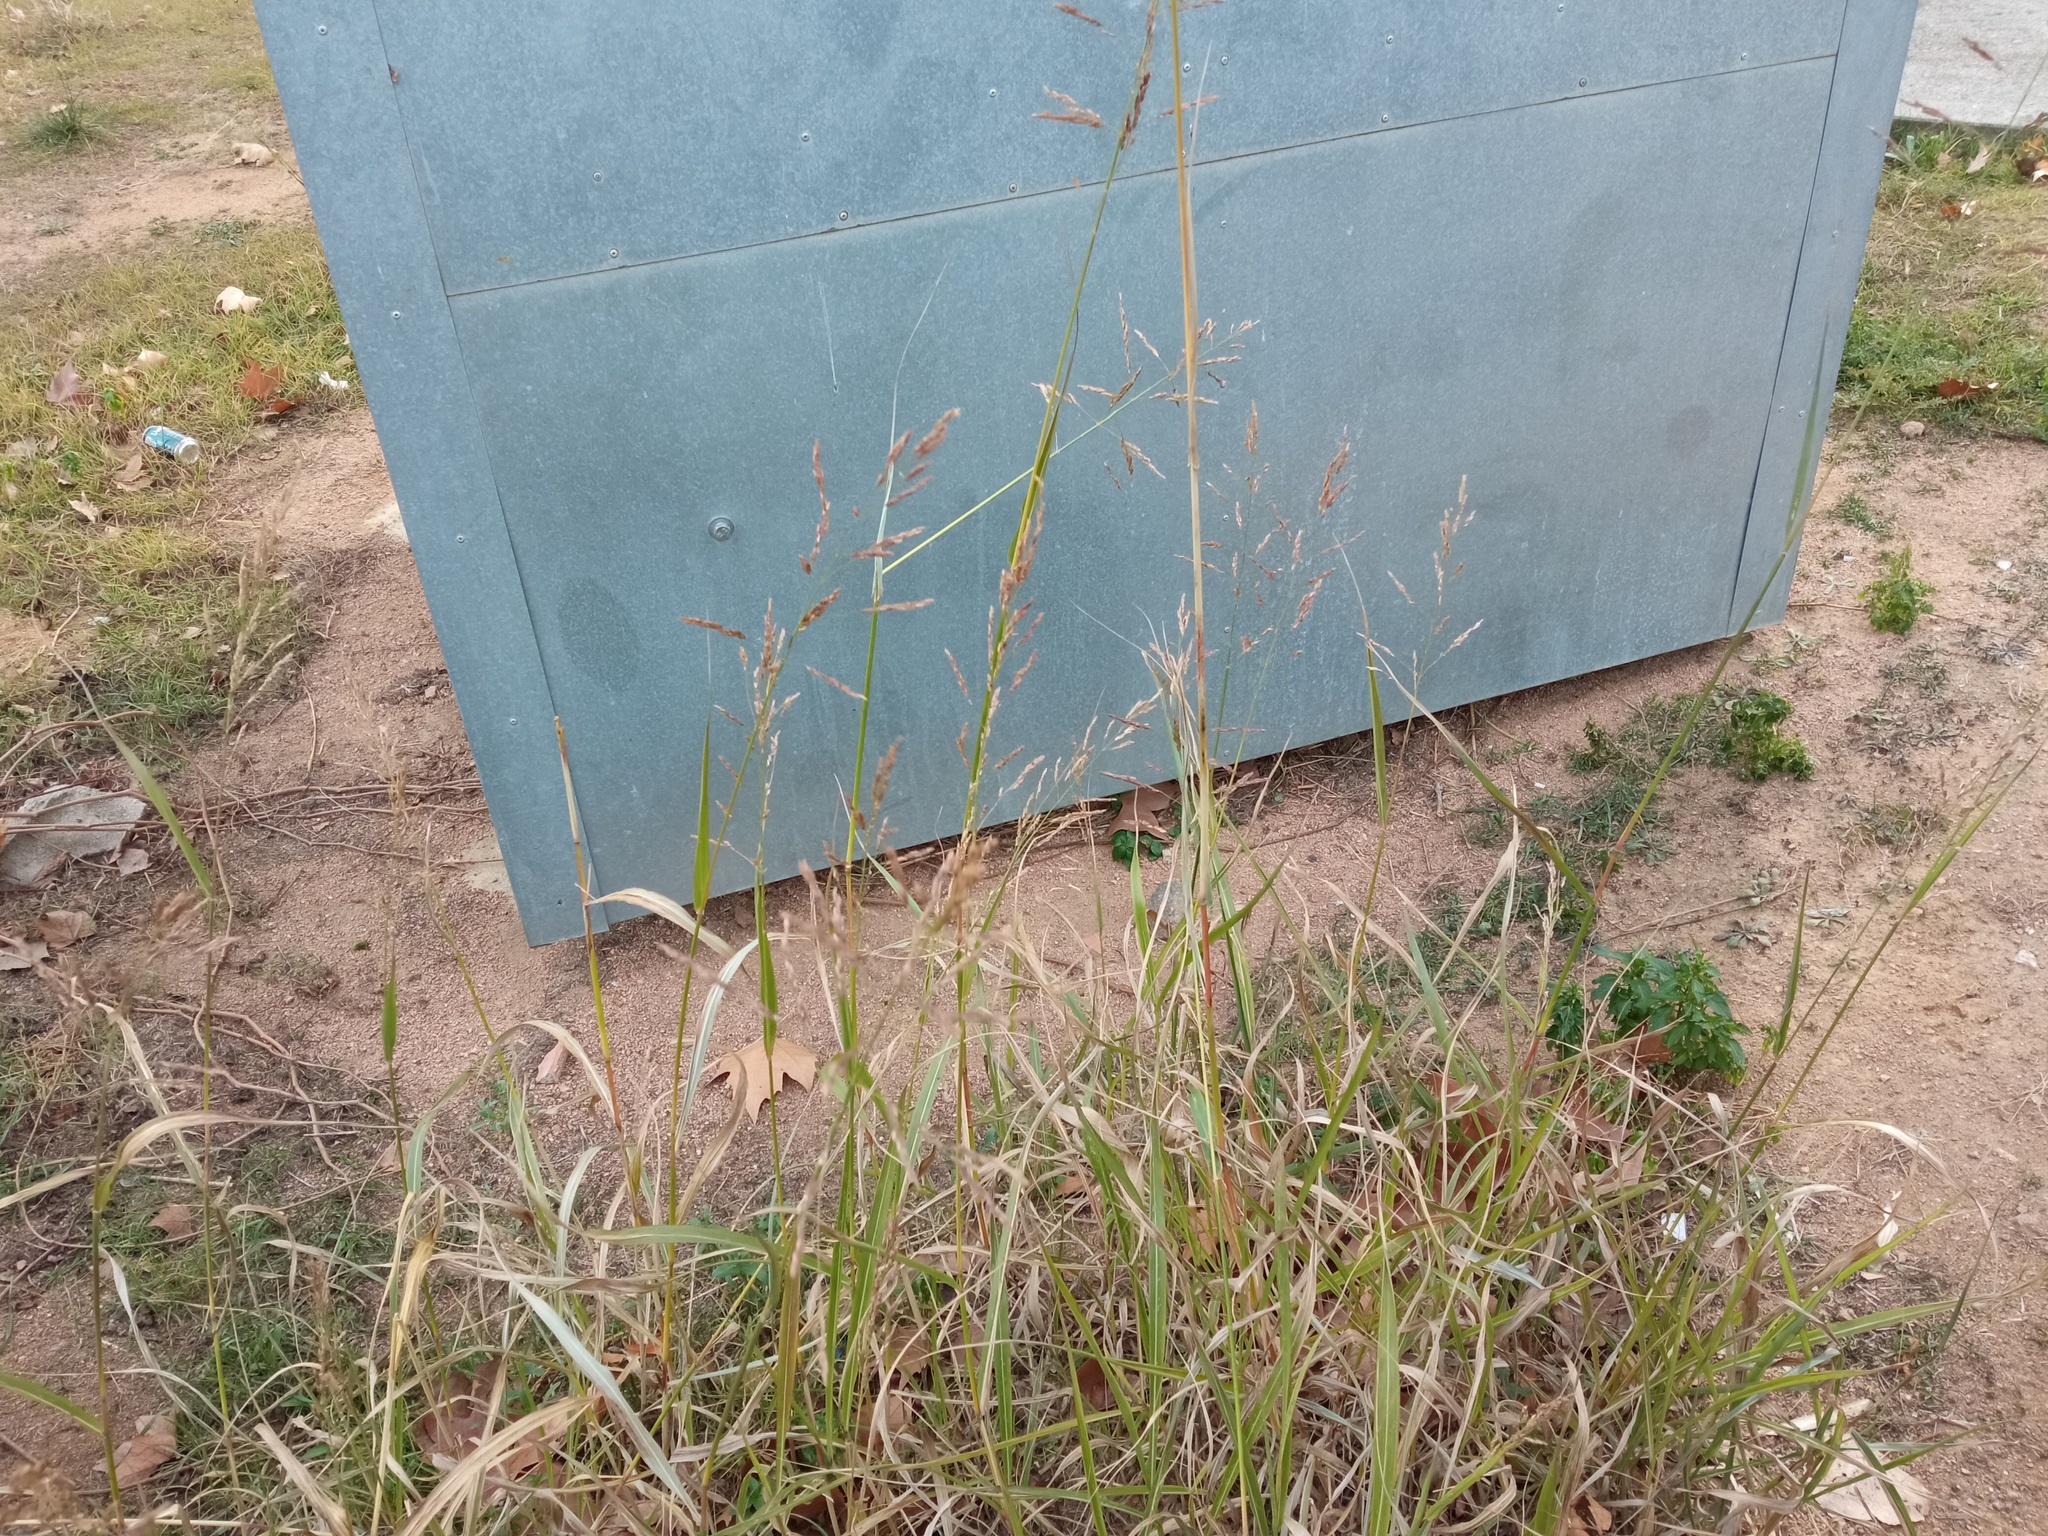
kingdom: Plantae
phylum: Tracheophyta
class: Liliopsida
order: Poales
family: Poaceae
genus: Sorghum
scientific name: Sorghum halepense
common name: Johnson-grass
